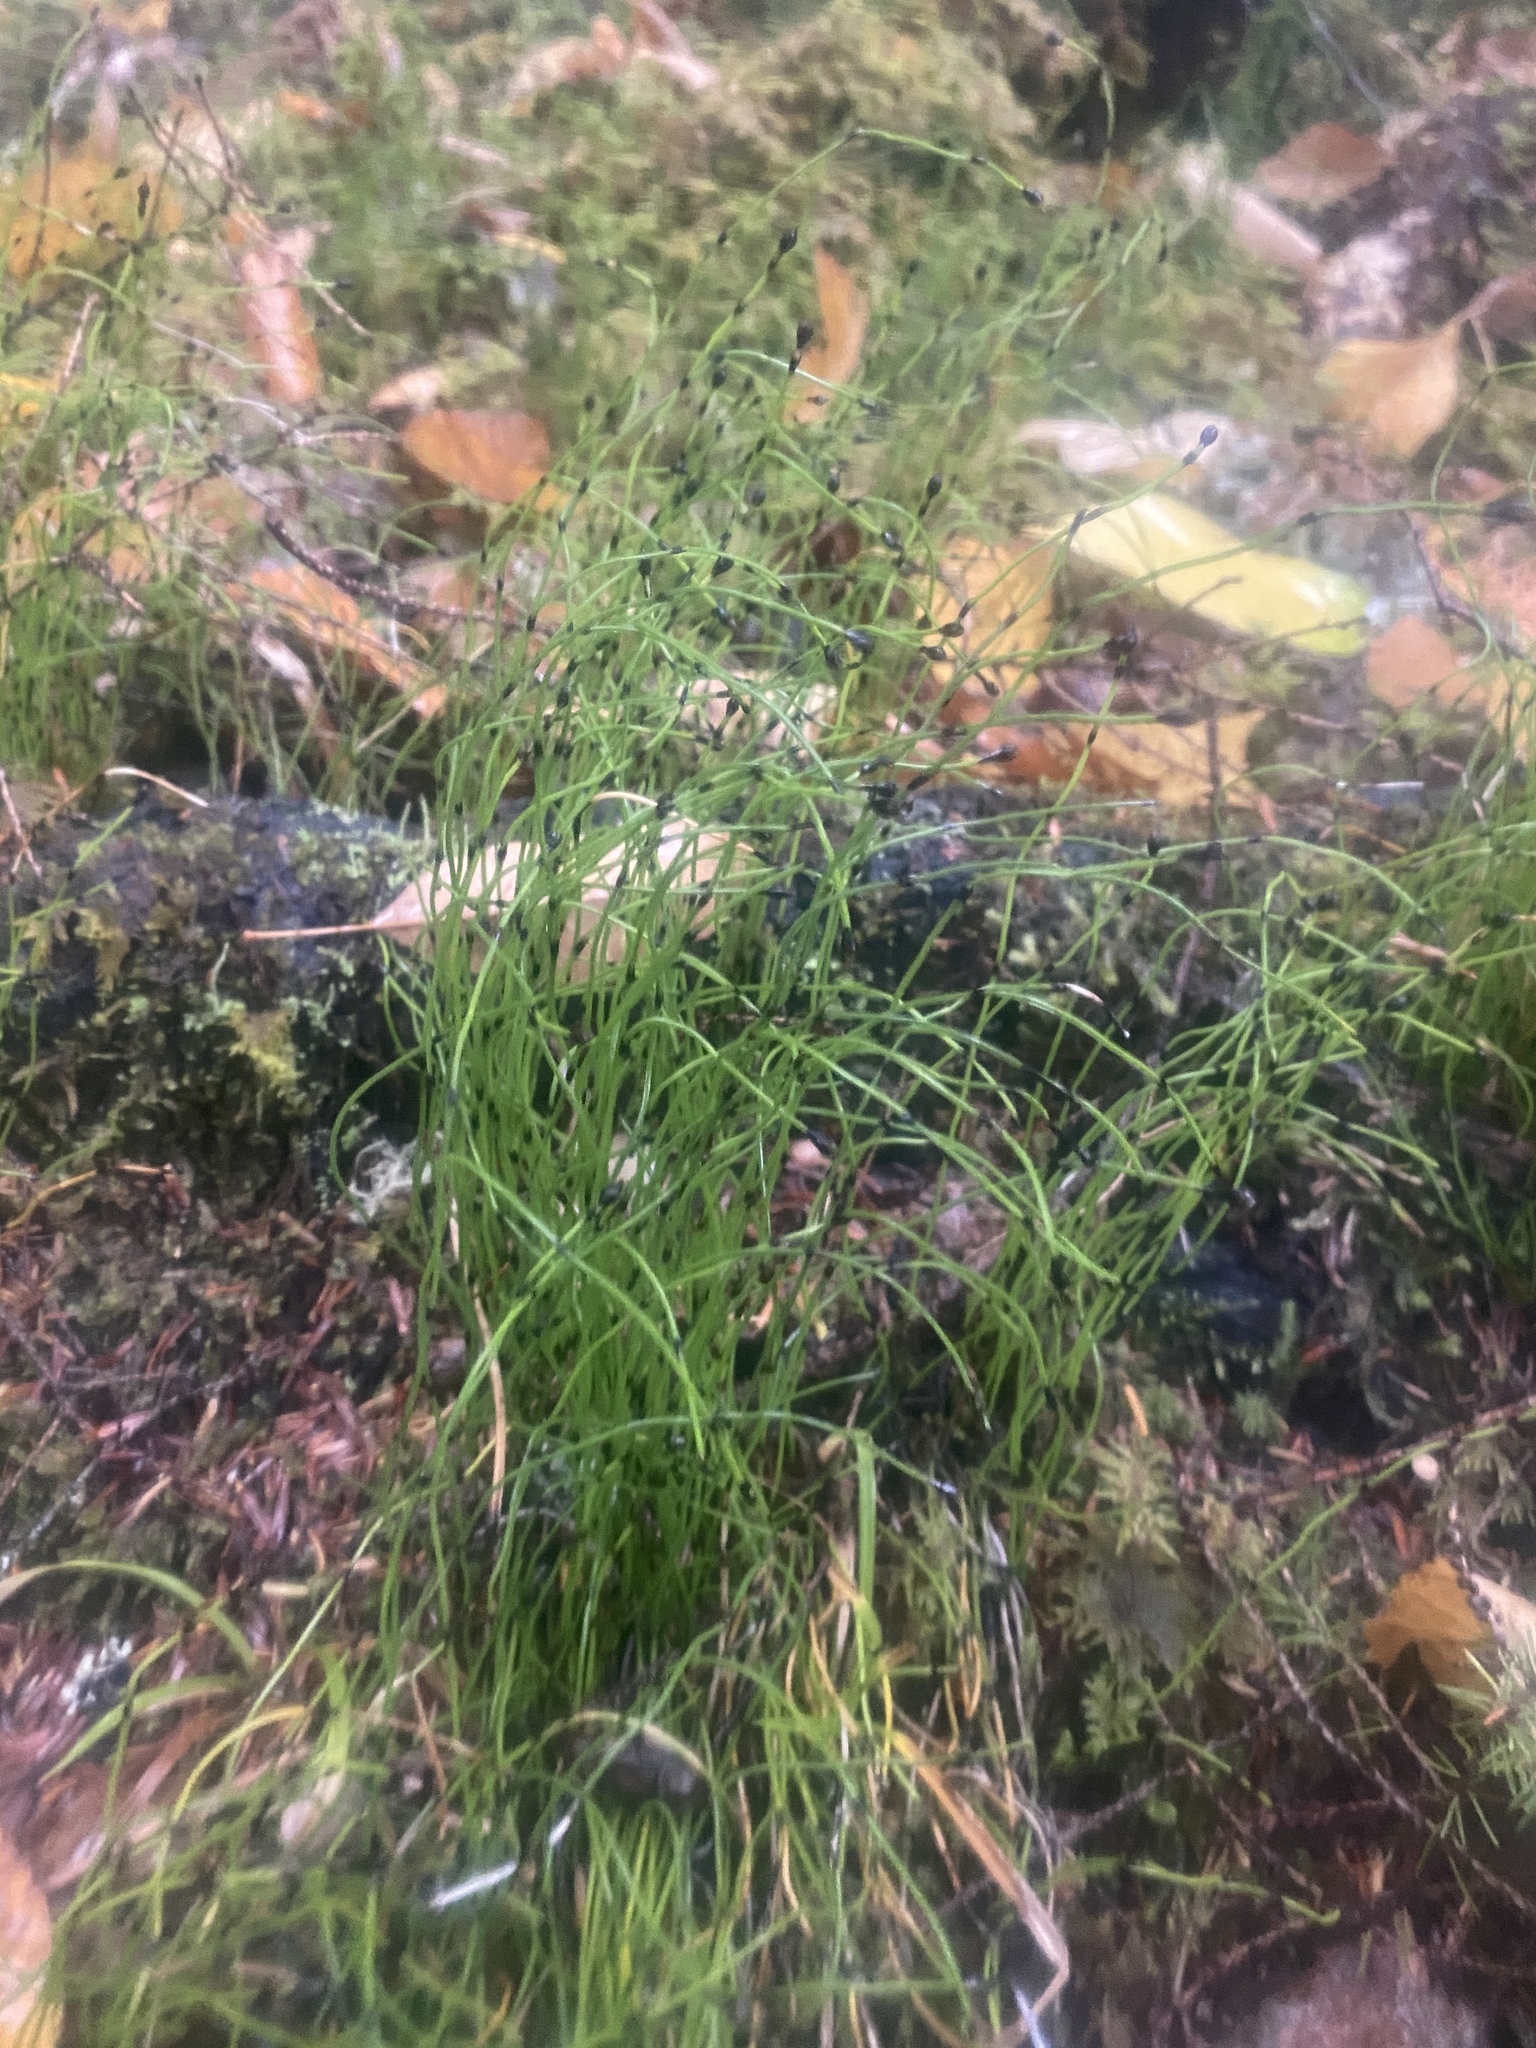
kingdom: Plantae
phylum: Tracheophyta
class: Polypodiopsida
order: Equisetales
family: Equisetaceae
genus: Equisetum
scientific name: Equisetum scirpoides
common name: Delicate horsetail
